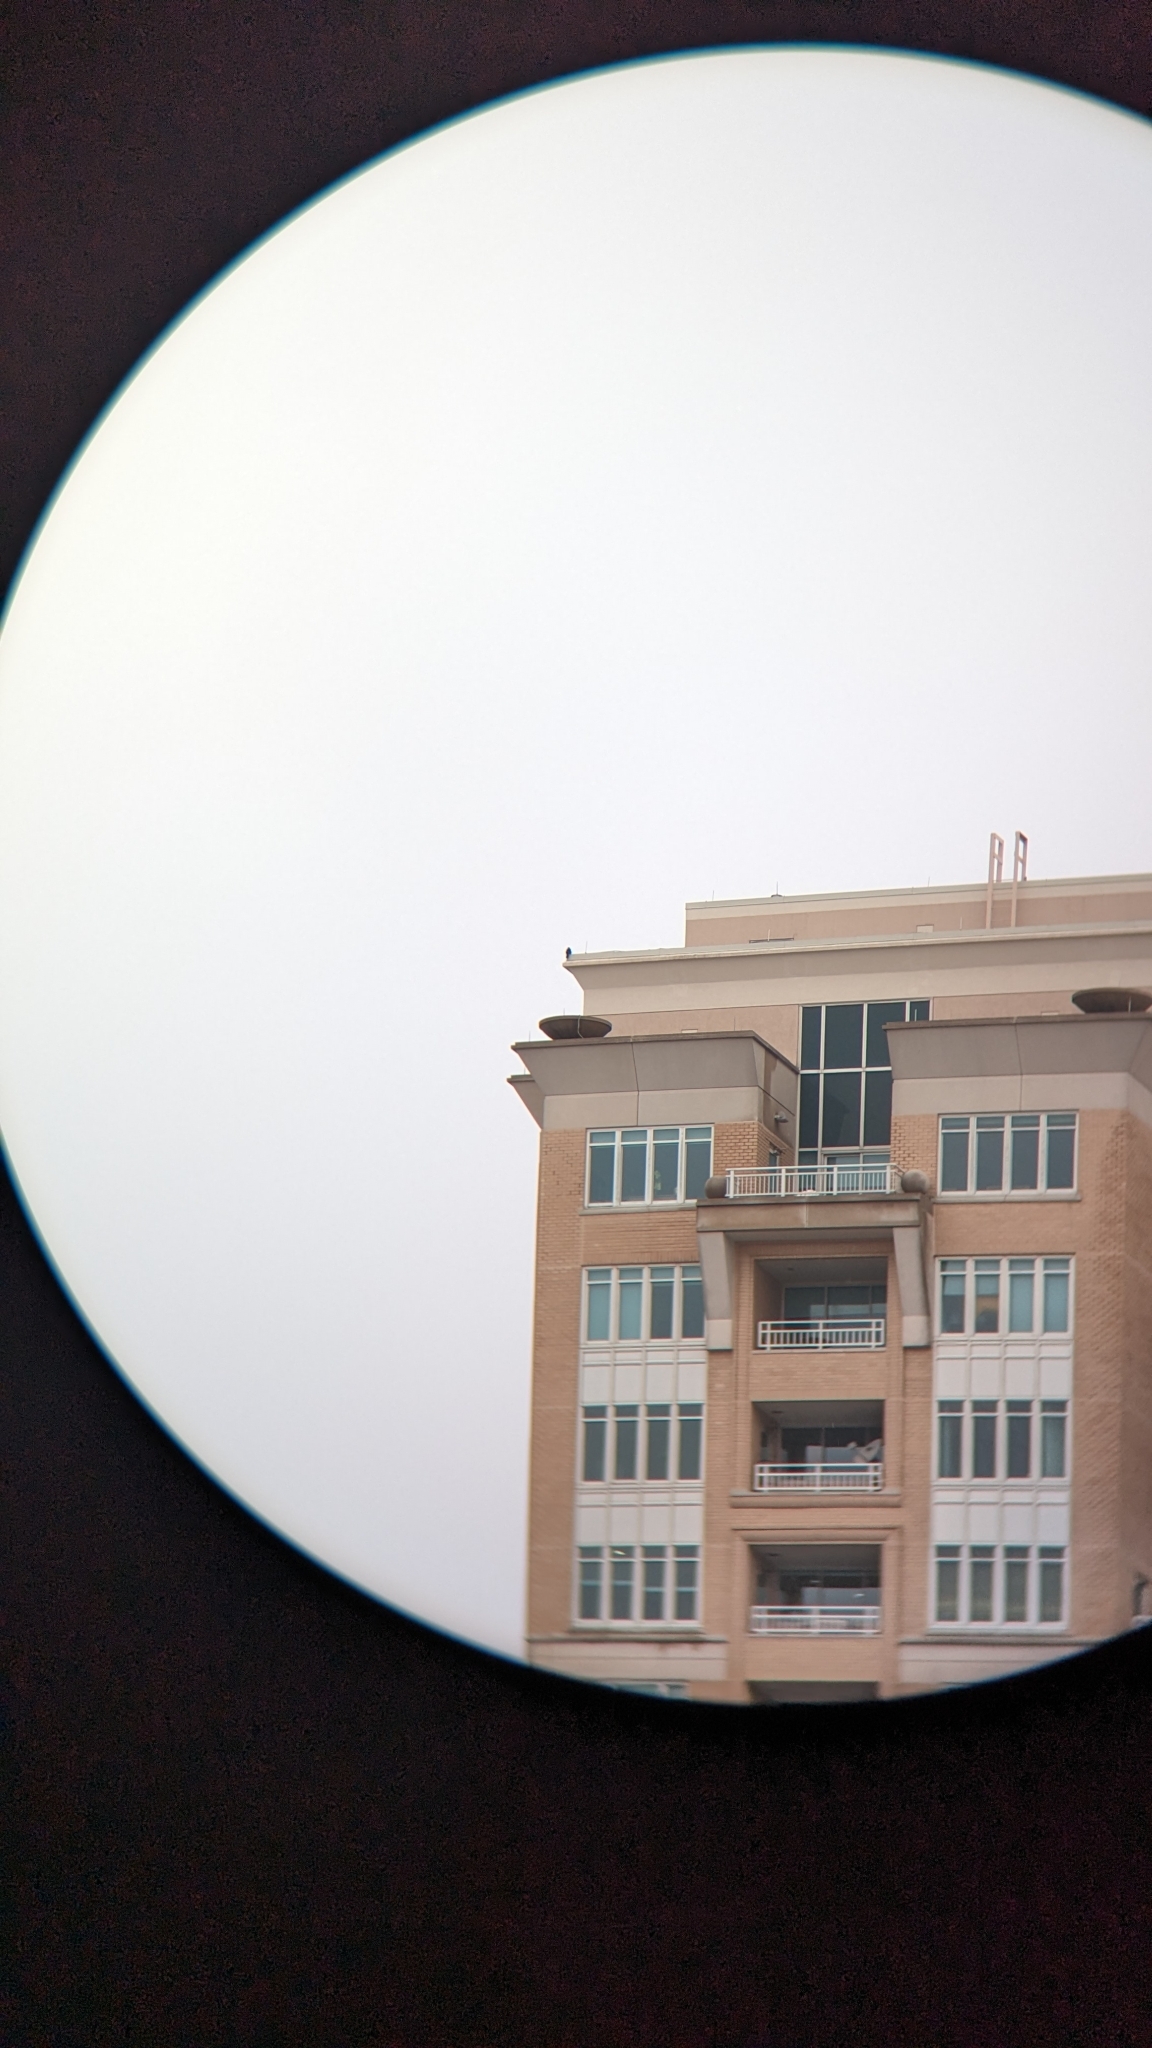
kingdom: Animalia
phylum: Chordata
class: Aves
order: Passeriformes
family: Corvidae
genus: Corvus
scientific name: Corvus corax
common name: Common raven
